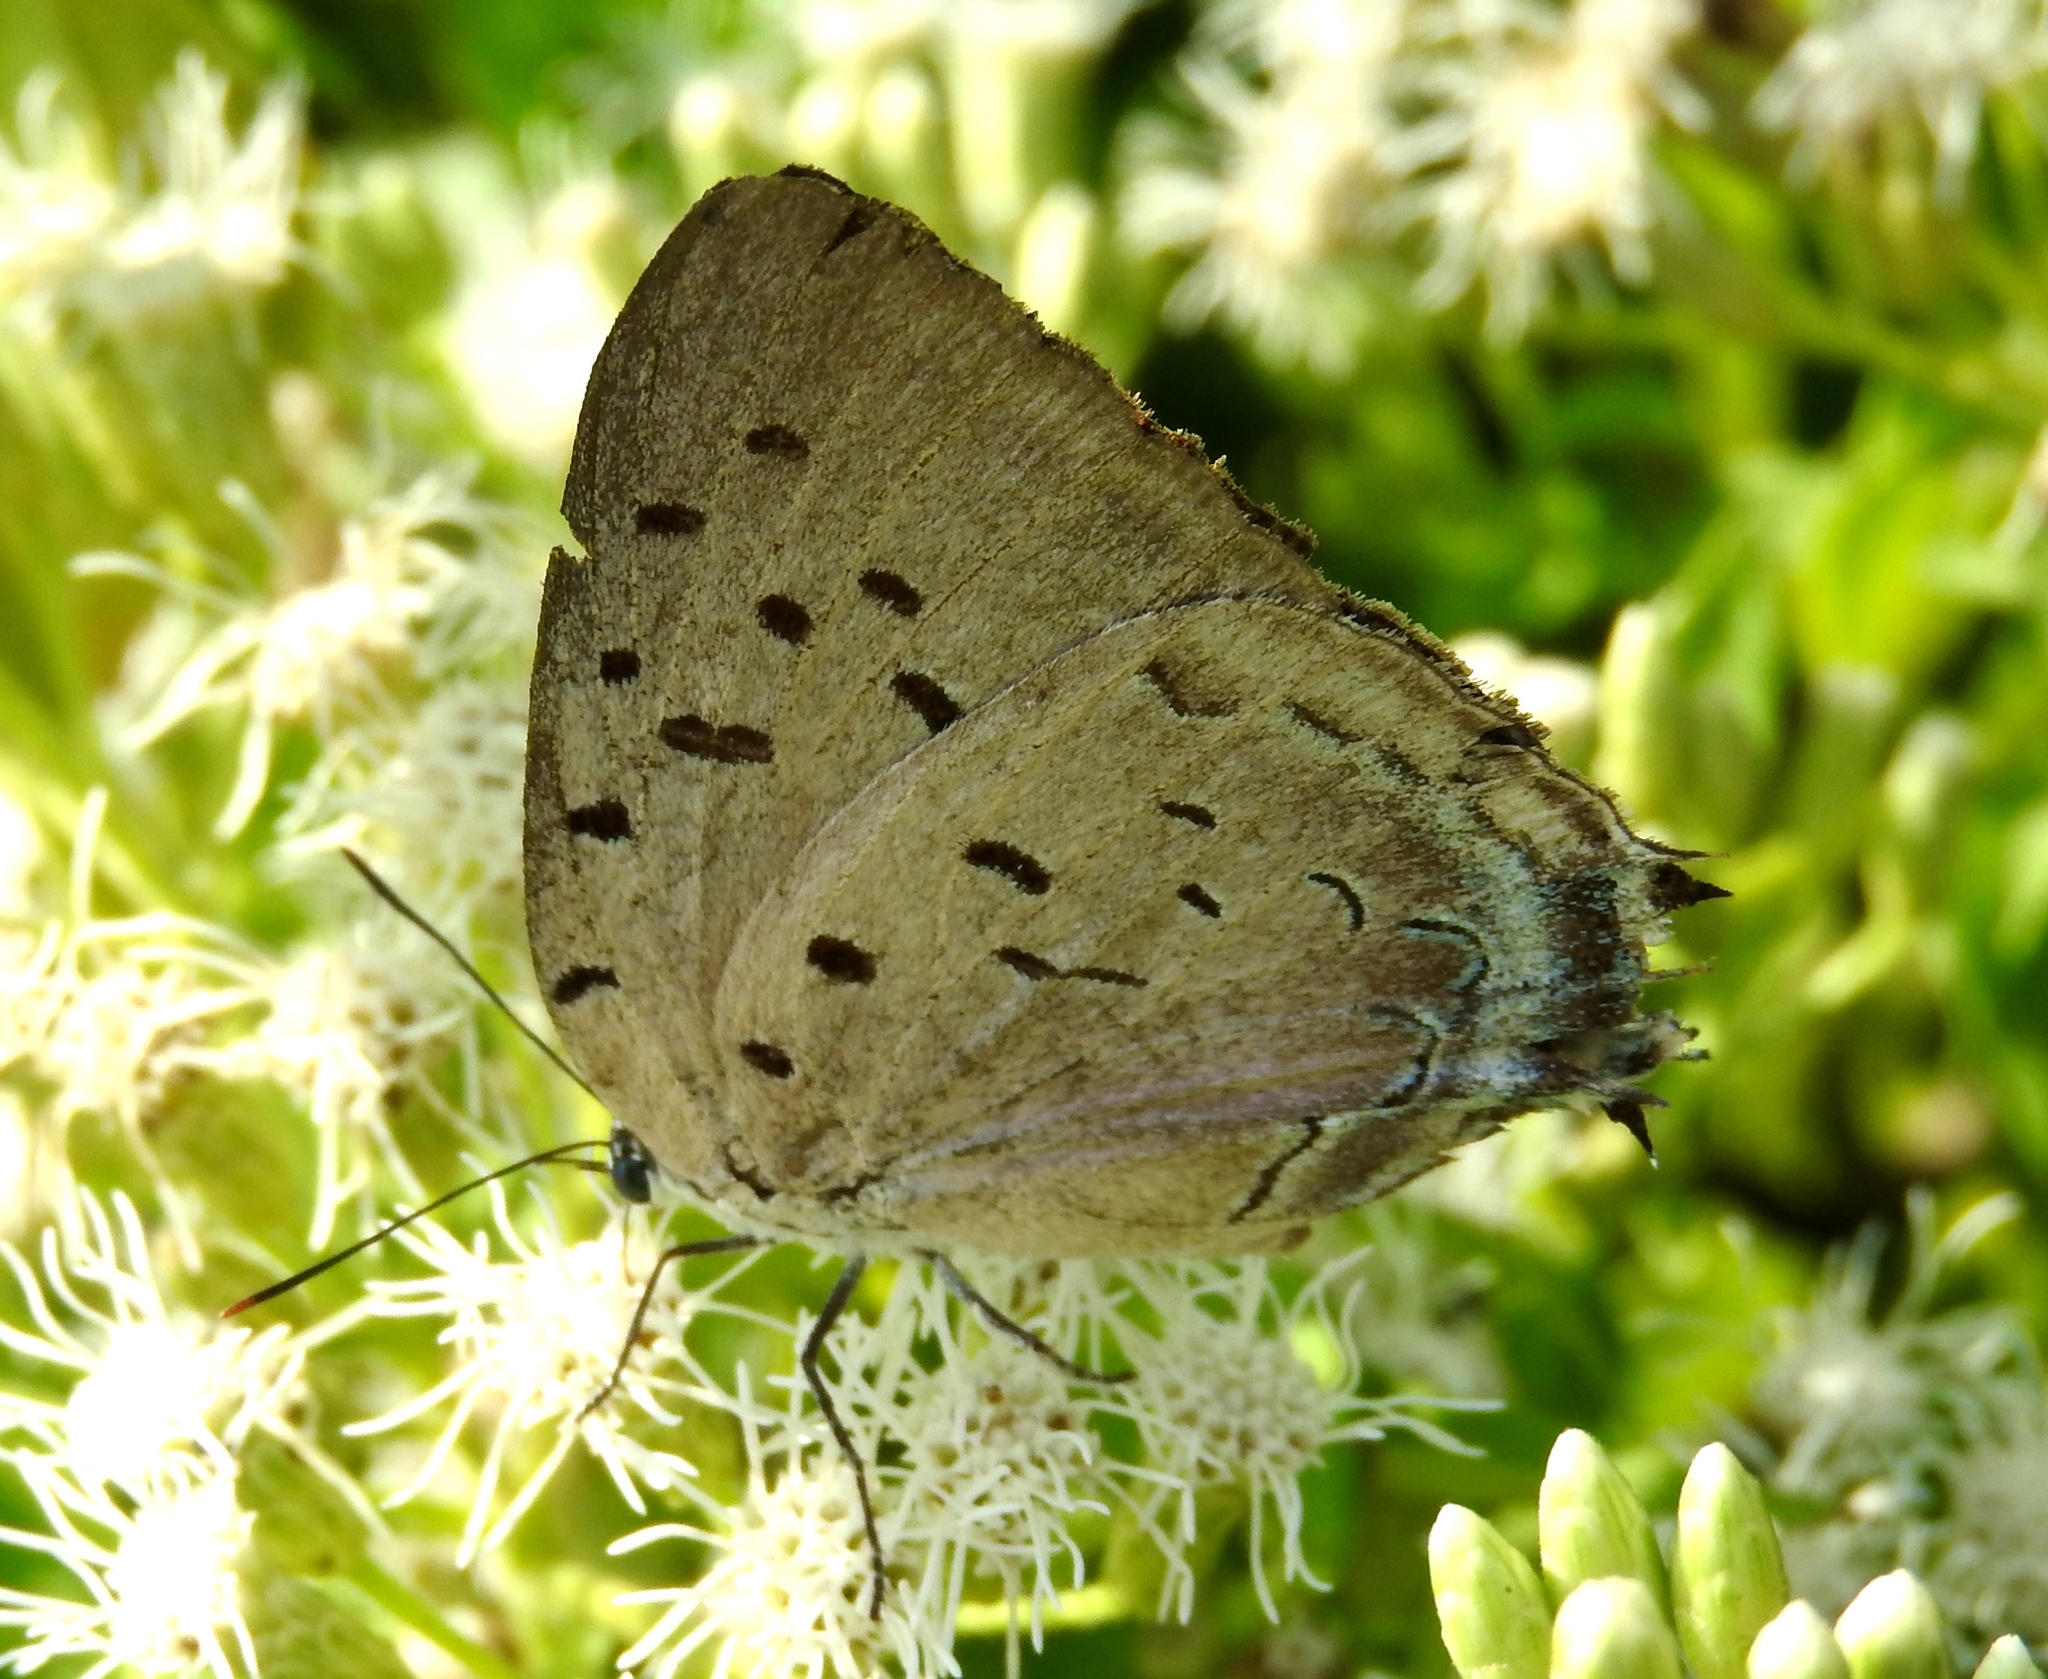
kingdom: Animalia
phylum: Arthropoda
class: Insecta
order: Lepidoptera
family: Lycaenidae
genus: Pseudolycaena
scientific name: Pseudolycaena damo
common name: Sky-blue hairstreak
